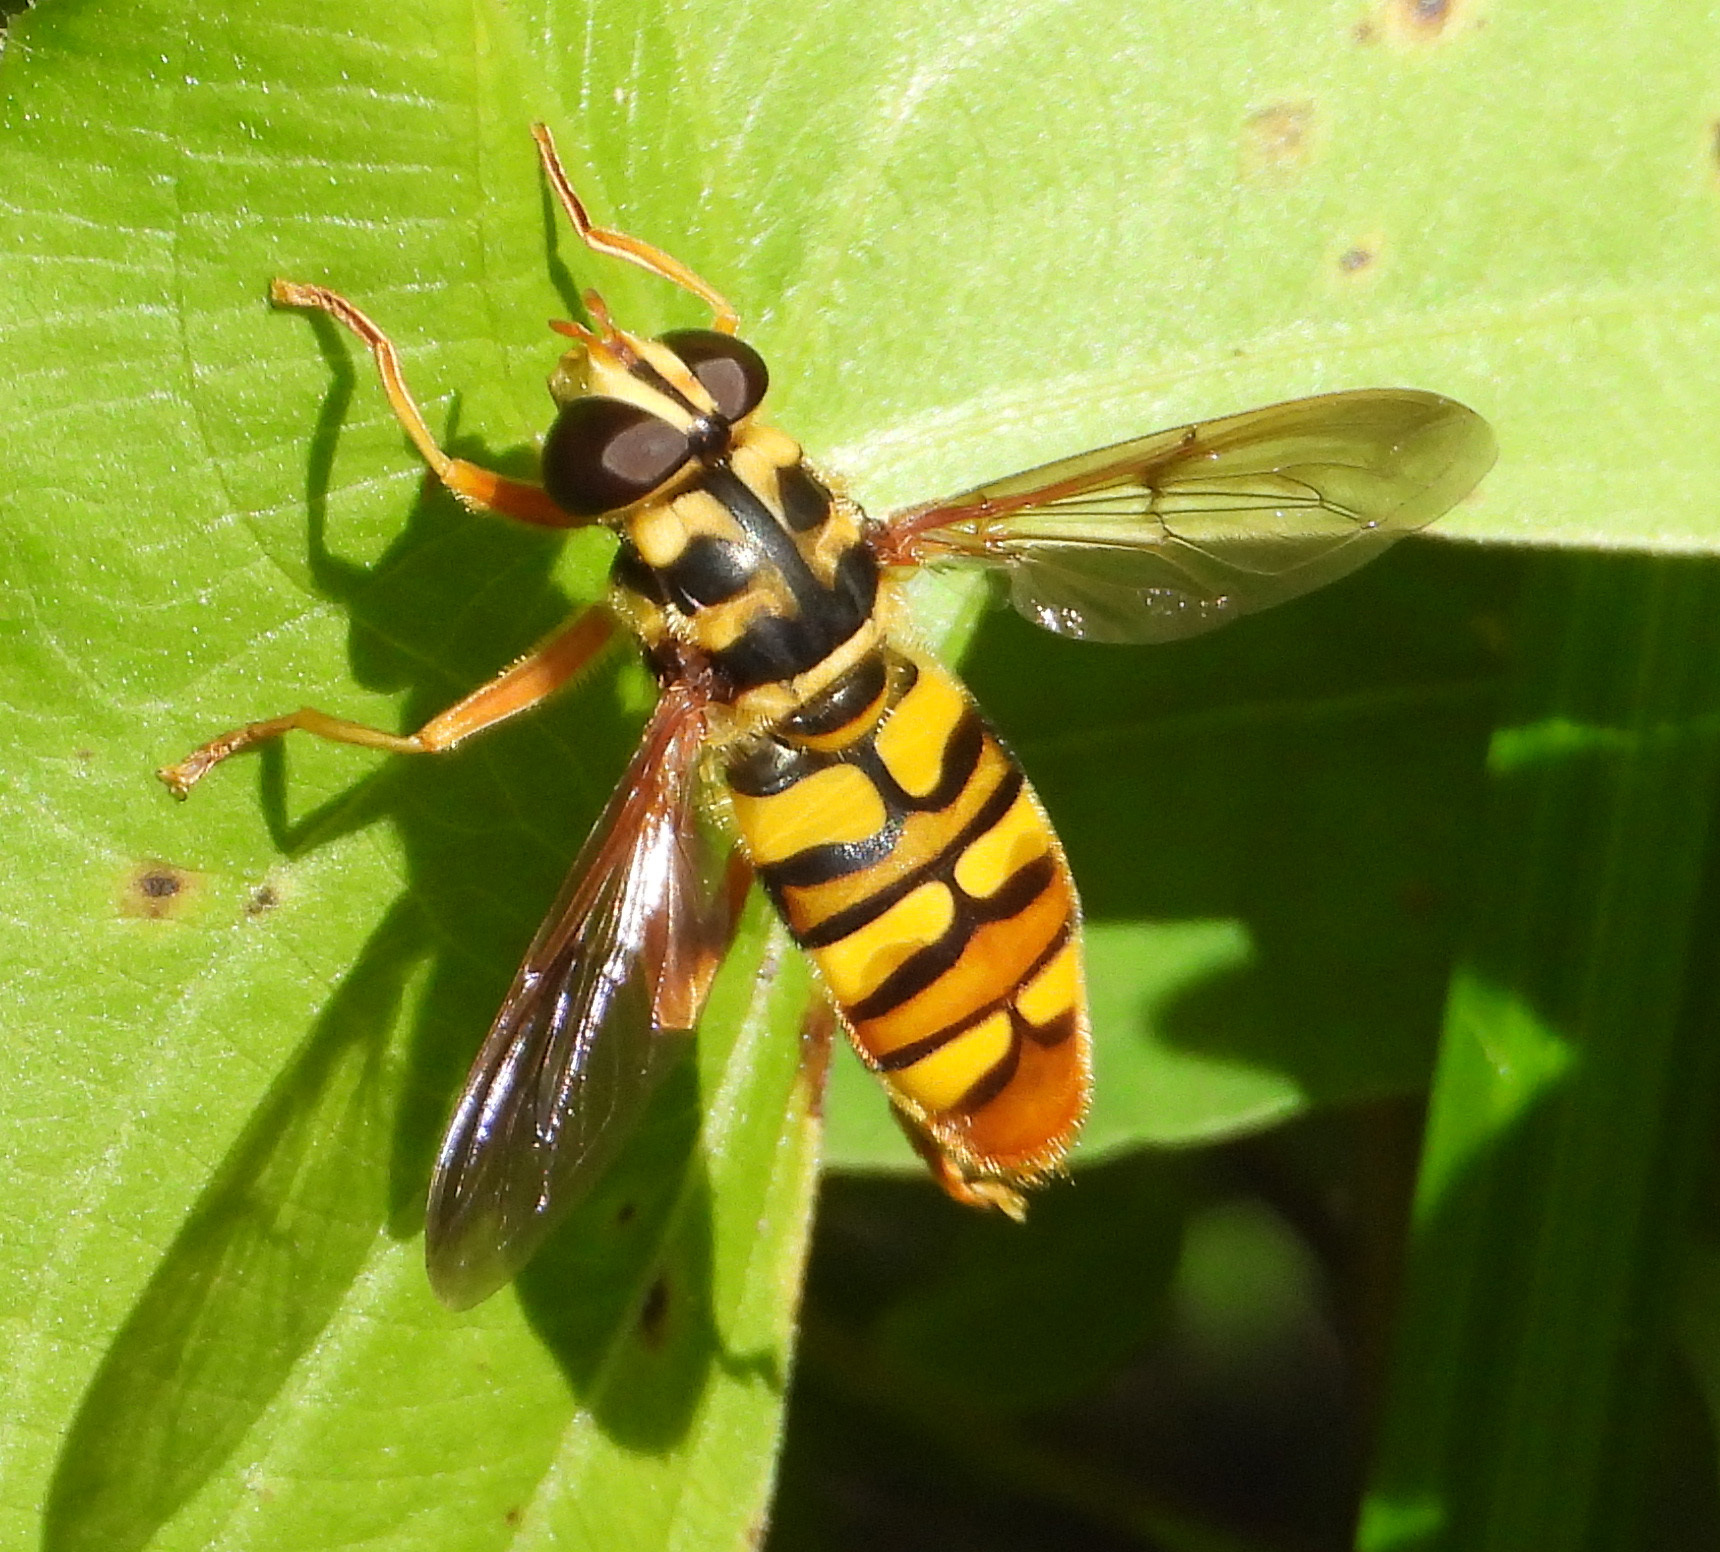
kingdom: Animalia
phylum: Arthropoda
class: Insecta
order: Diptera
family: Syrphidae
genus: Milesia
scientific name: Milesia virginiensis
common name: Virginia giant
